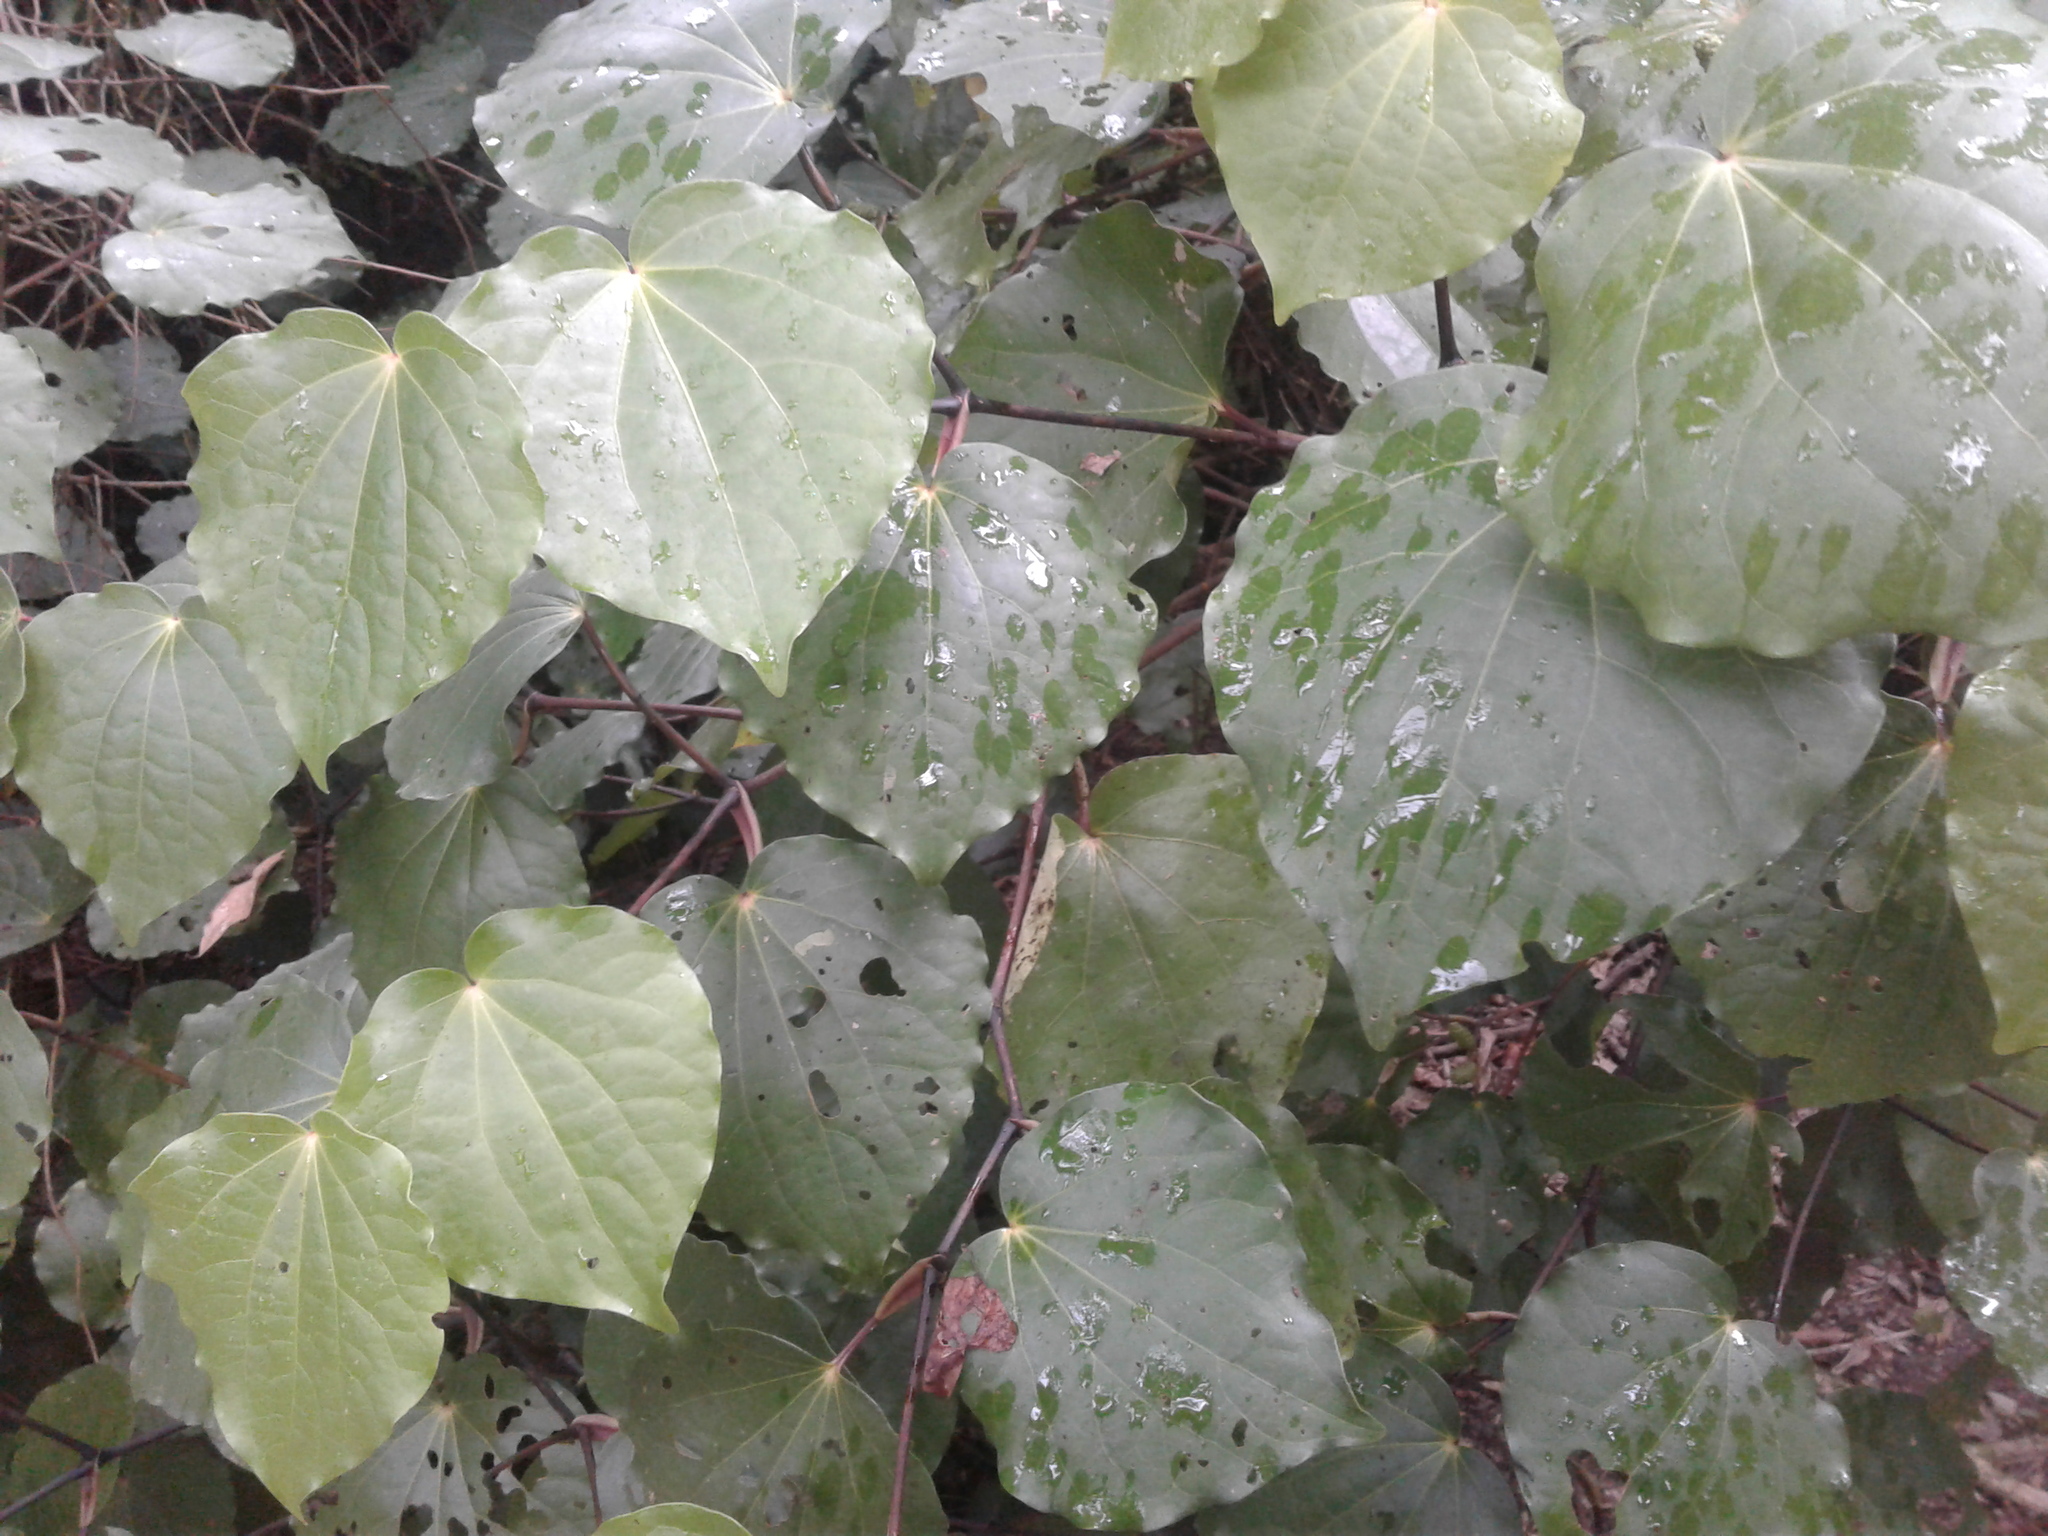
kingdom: Plantae
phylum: Tracheophyta
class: Magnoliopsida
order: Piperales
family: Piperaceae
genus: Macropiper
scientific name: Macropiper excelsum
